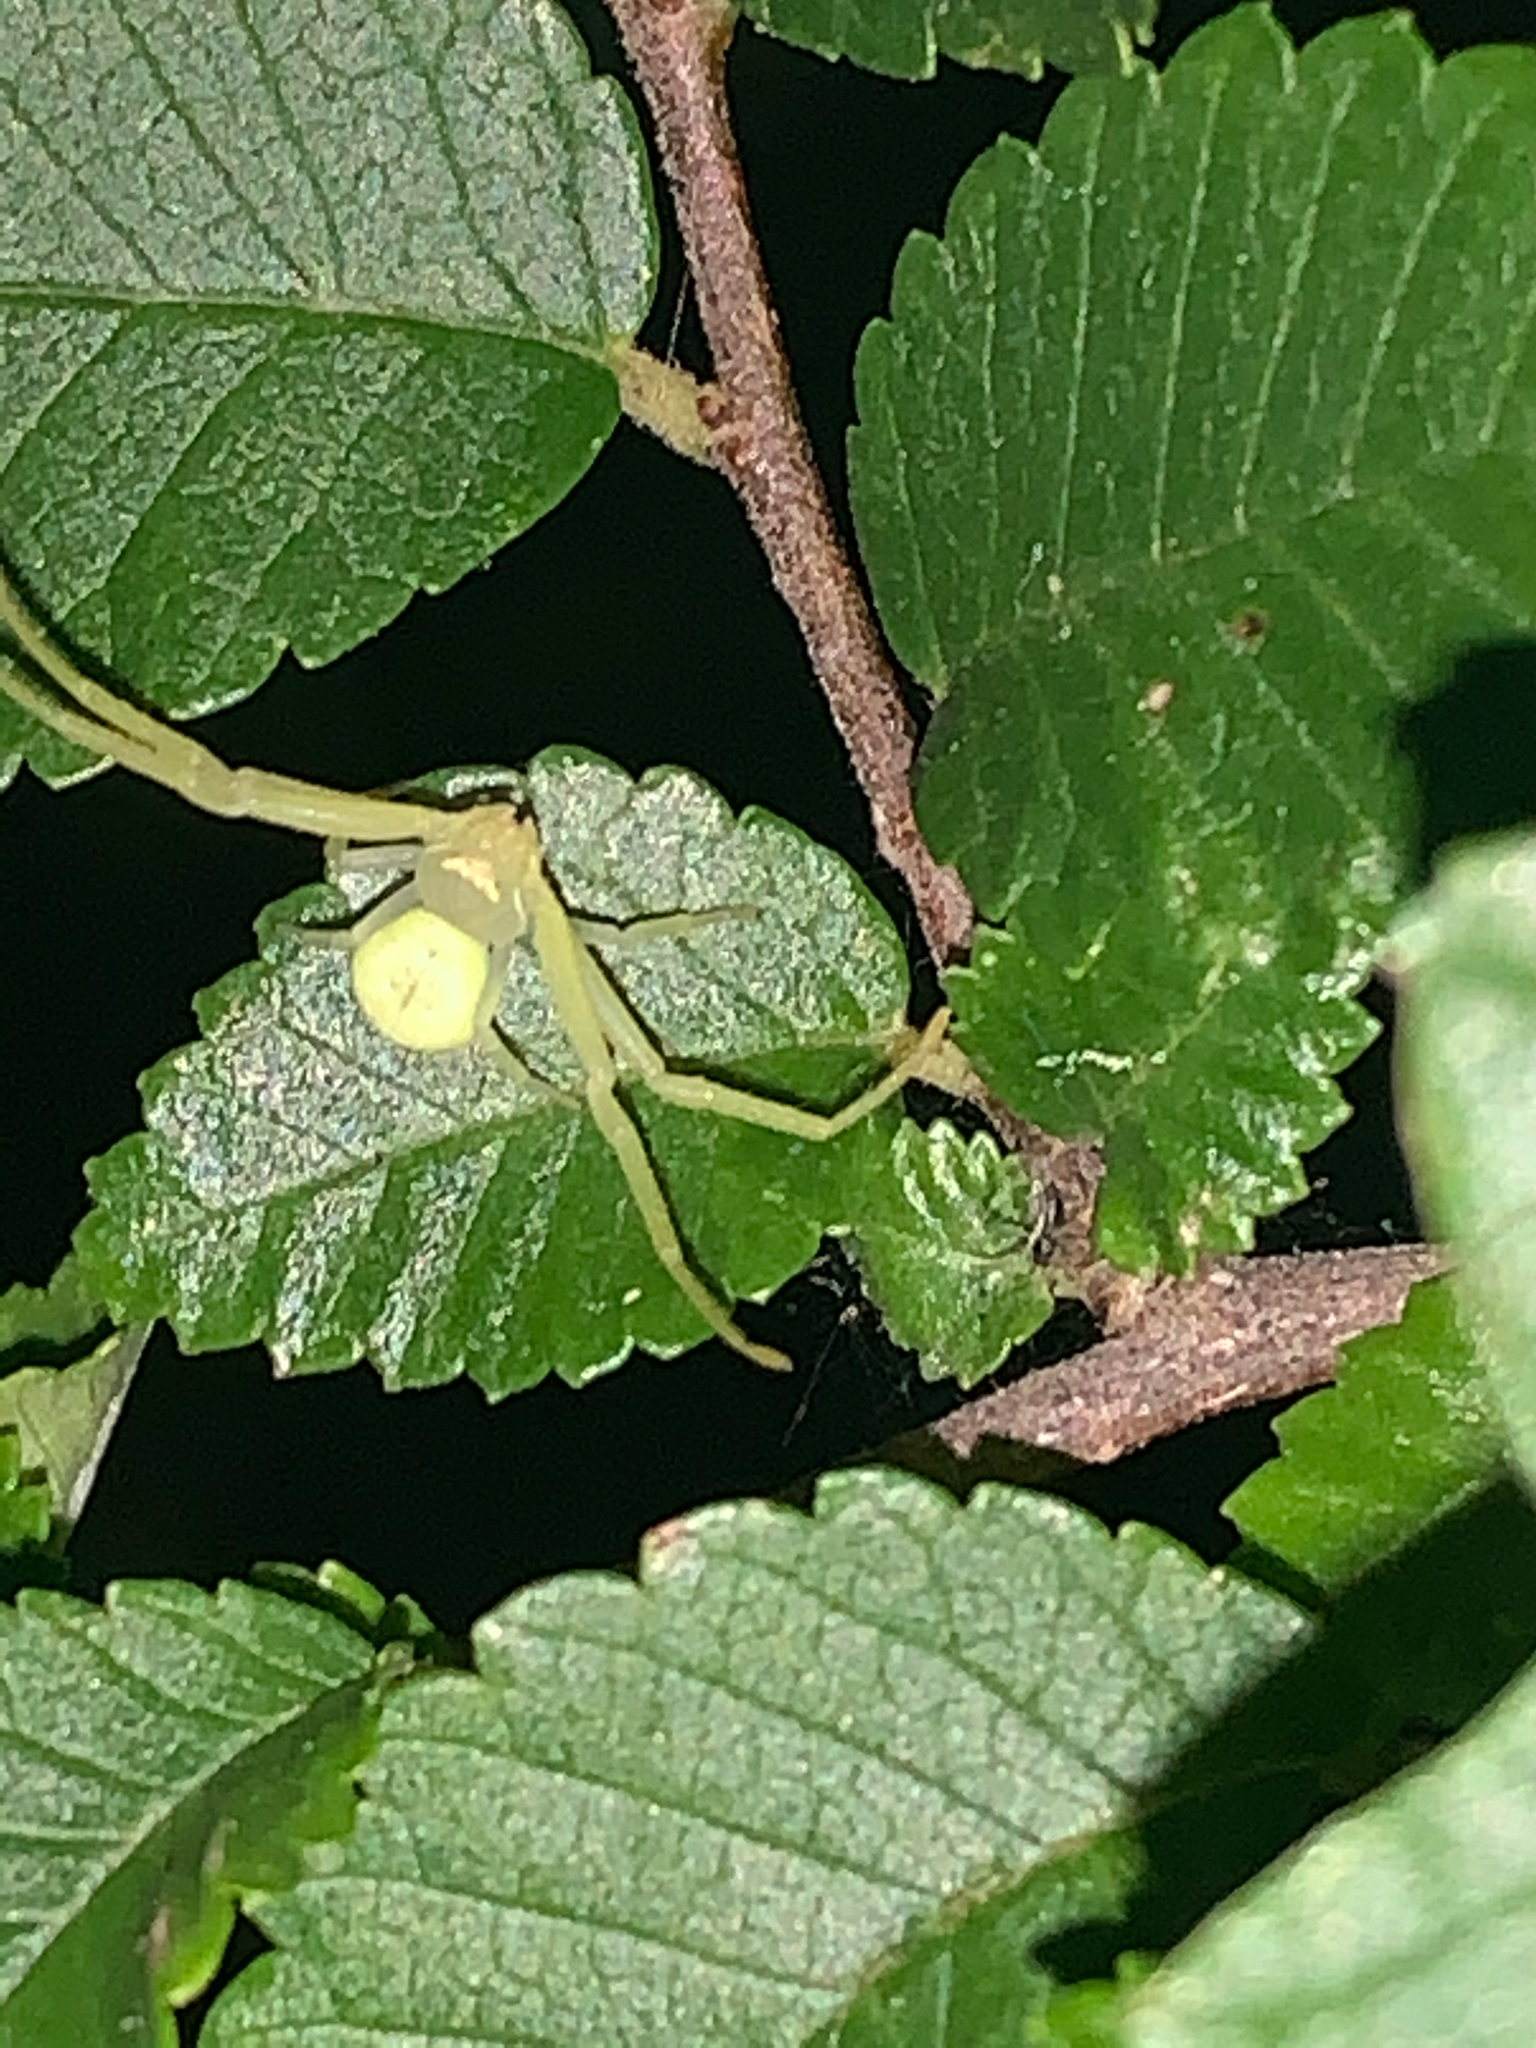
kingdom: Animalia
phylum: Arthropoda
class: Arachnida
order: Araneae
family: Thomisidae
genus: Misumessus
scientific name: Misumessus oblongus
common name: American green crab spider
